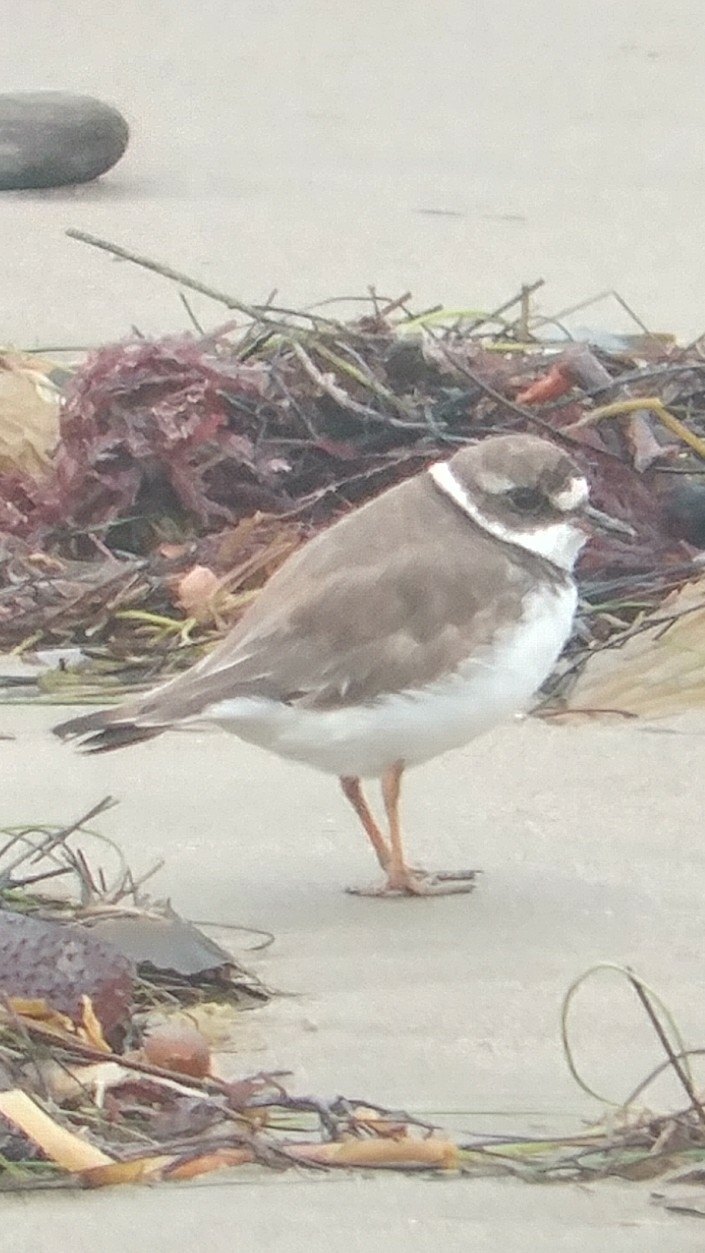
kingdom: Animalia
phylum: Chordata
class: Aves
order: Charadriiformes
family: Charadriidae
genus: Charadrius
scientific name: Charadrius semipalmatus
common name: Semipalmated plover
